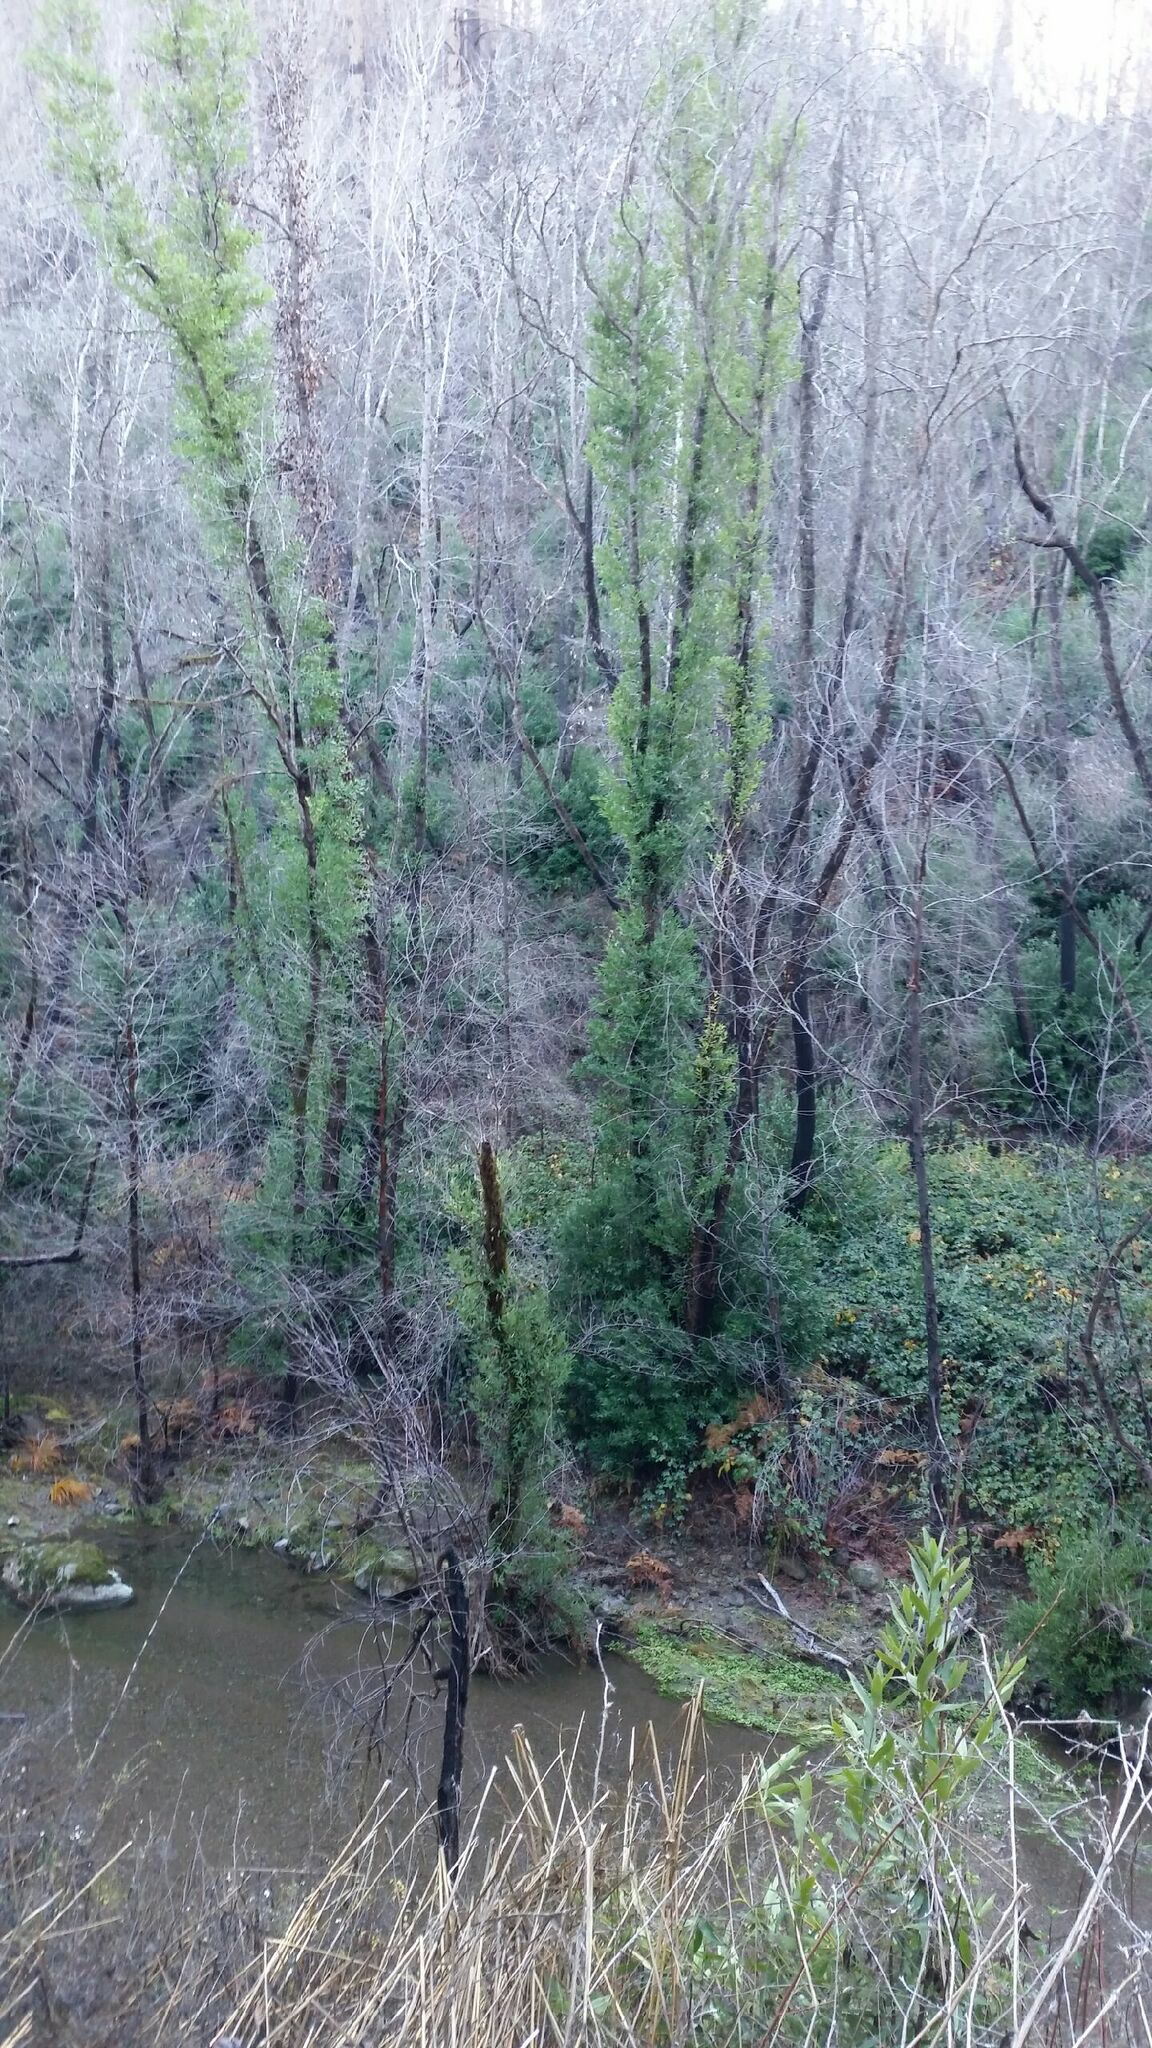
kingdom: Plantae
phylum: Tracheophyta
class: Magnoliopsida
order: Laurales
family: Lauraceae
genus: Umbellularia
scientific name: Umbellularia californica
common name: California bay
